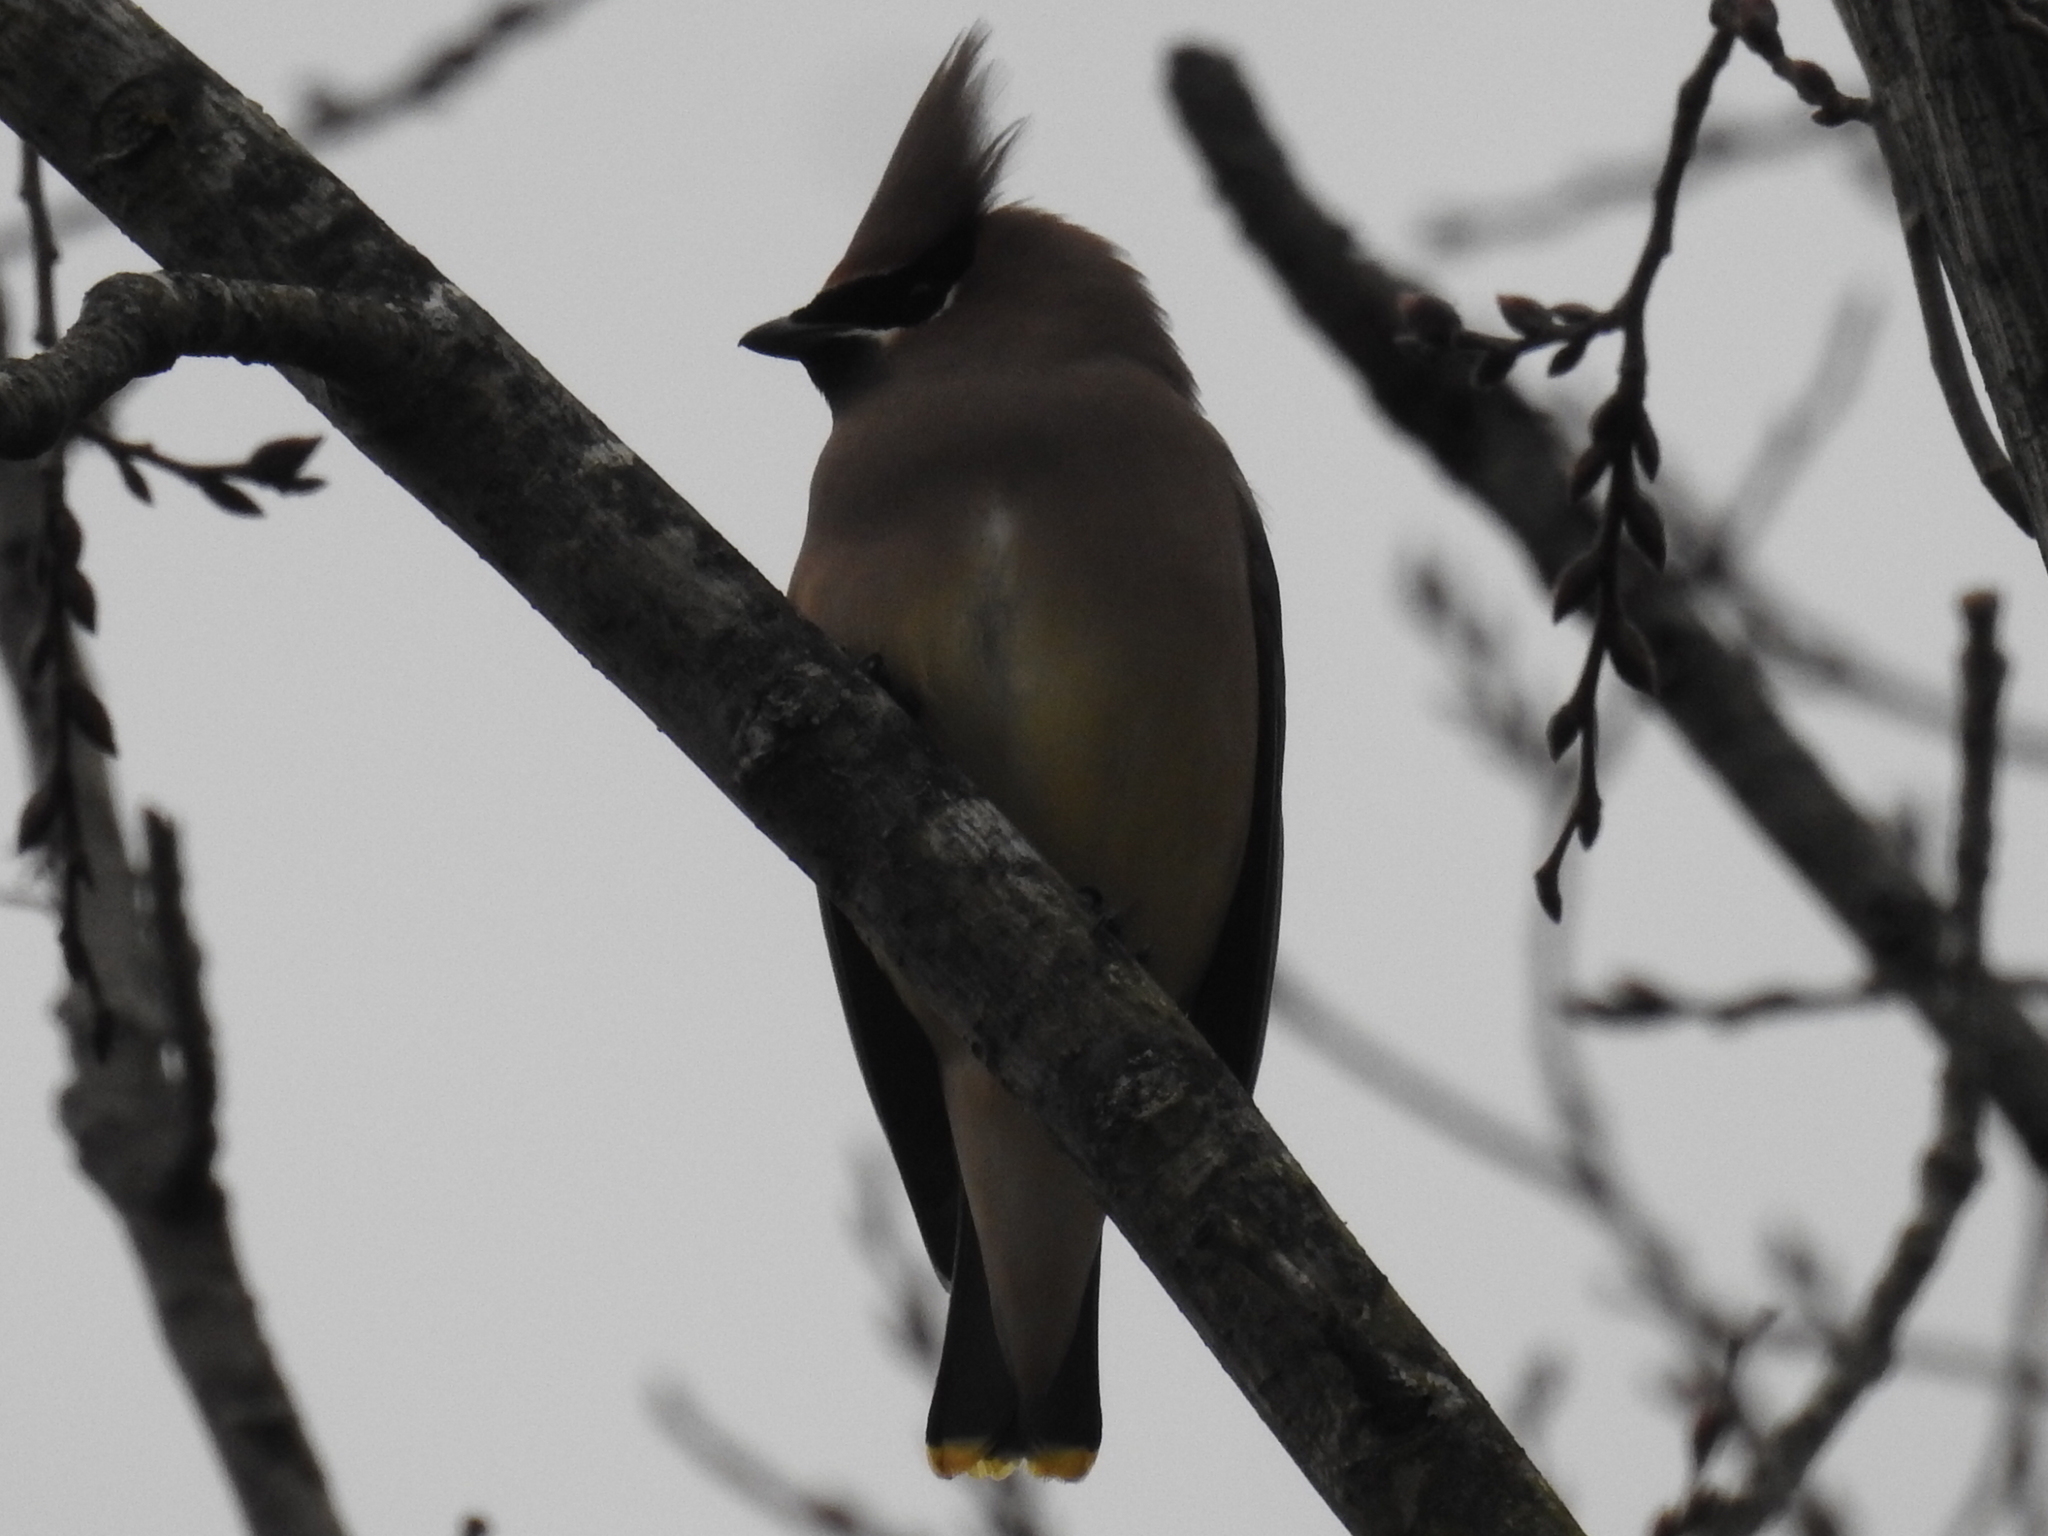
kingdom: Animalia
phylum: Chordata
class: Aves
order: Passeriformes
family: Bombycillidae
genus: Bombycilla
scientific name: Bombycilla cedrorum
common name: Cedar waxwing
